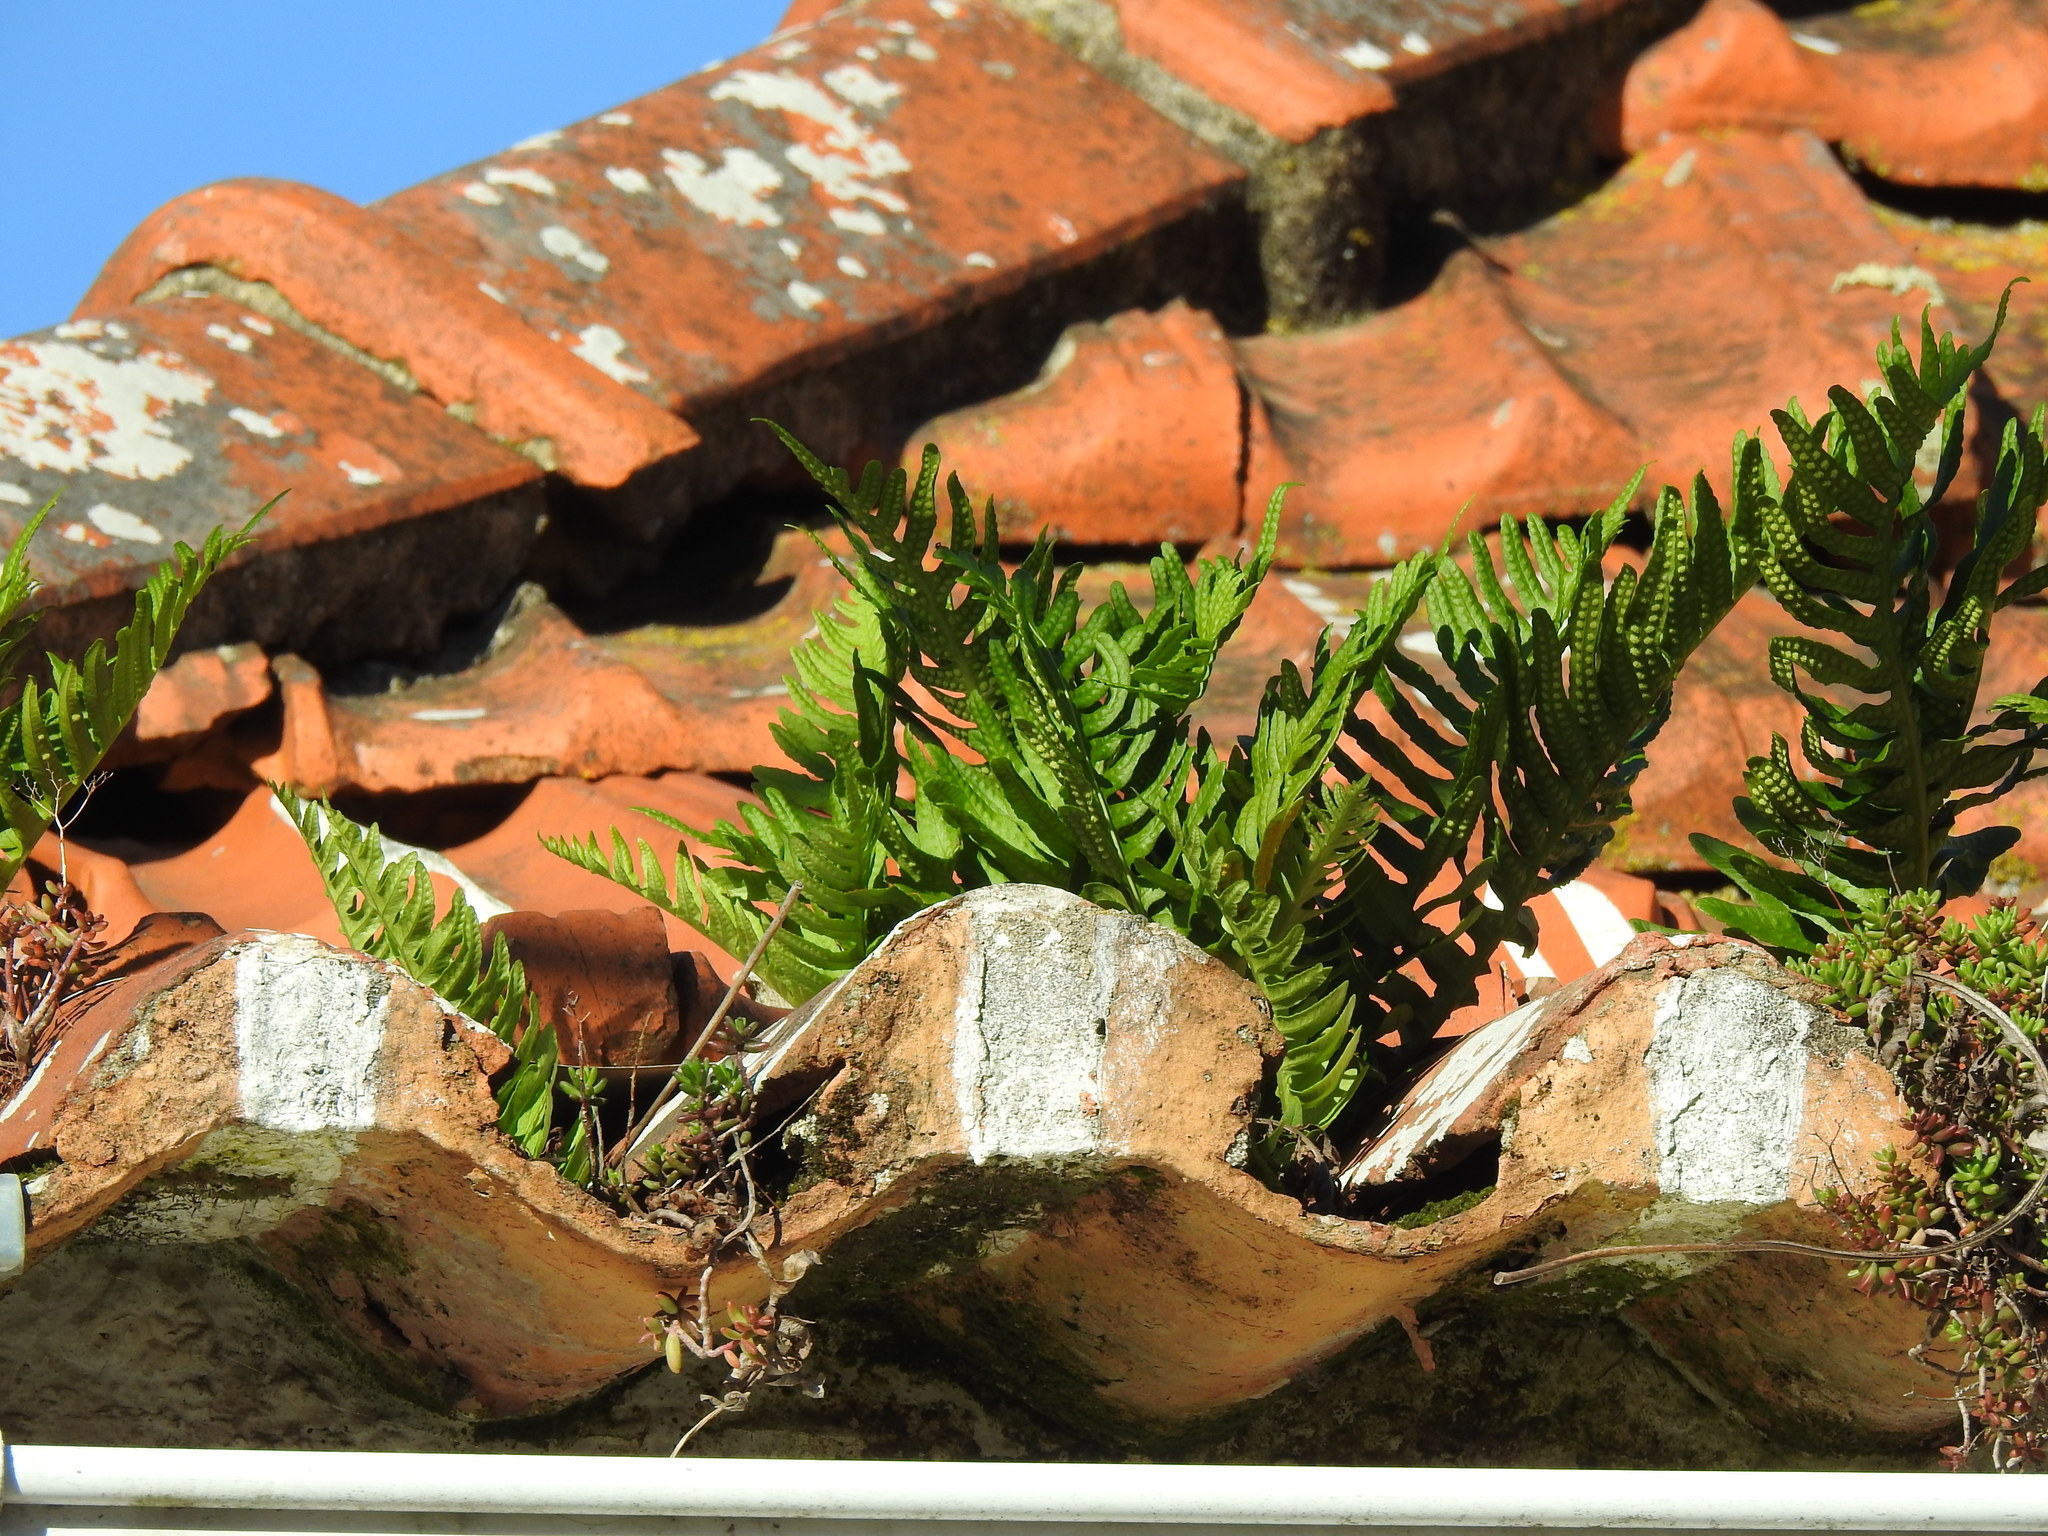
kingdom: Plantae
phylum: Tracheophyta
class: Polypodiopsida
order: Polypodiales
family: Polypodiaceae
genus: Polypodium
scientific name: Polypodium cambricum
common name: Southern polypody
